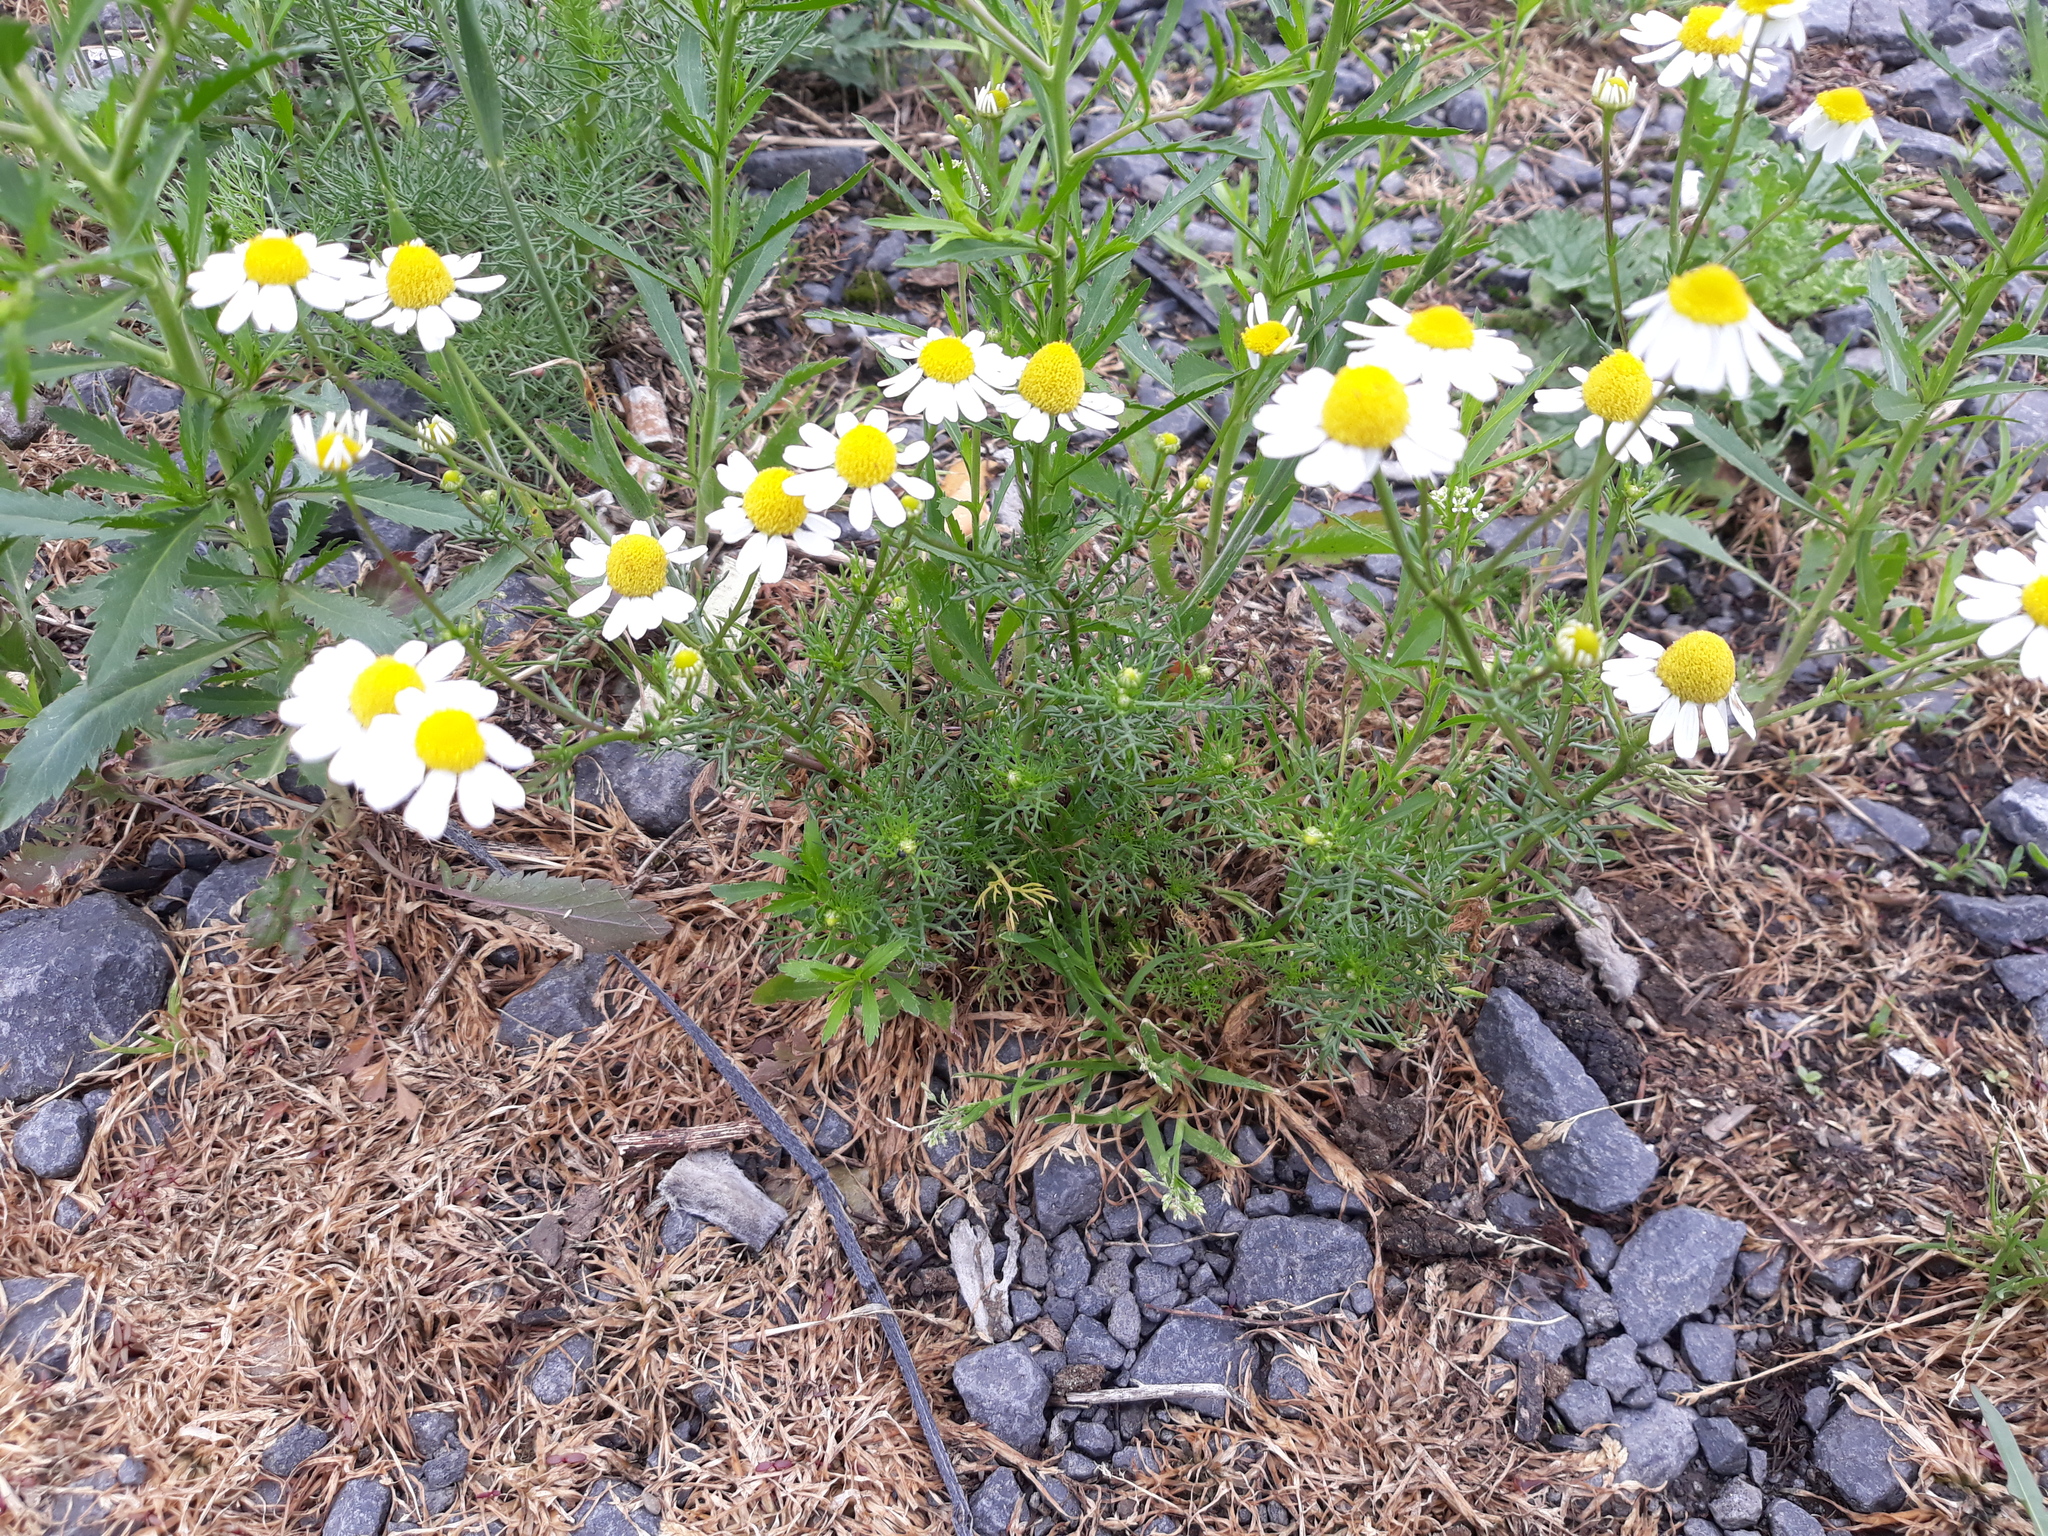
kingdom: Plantae
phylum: Tracheophyta
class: Magnoliopsida
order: Asterales
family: Asteraceae
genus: Tripleurospermum
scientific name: Tripleurospermum inodorum
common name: Scentless mayweed
